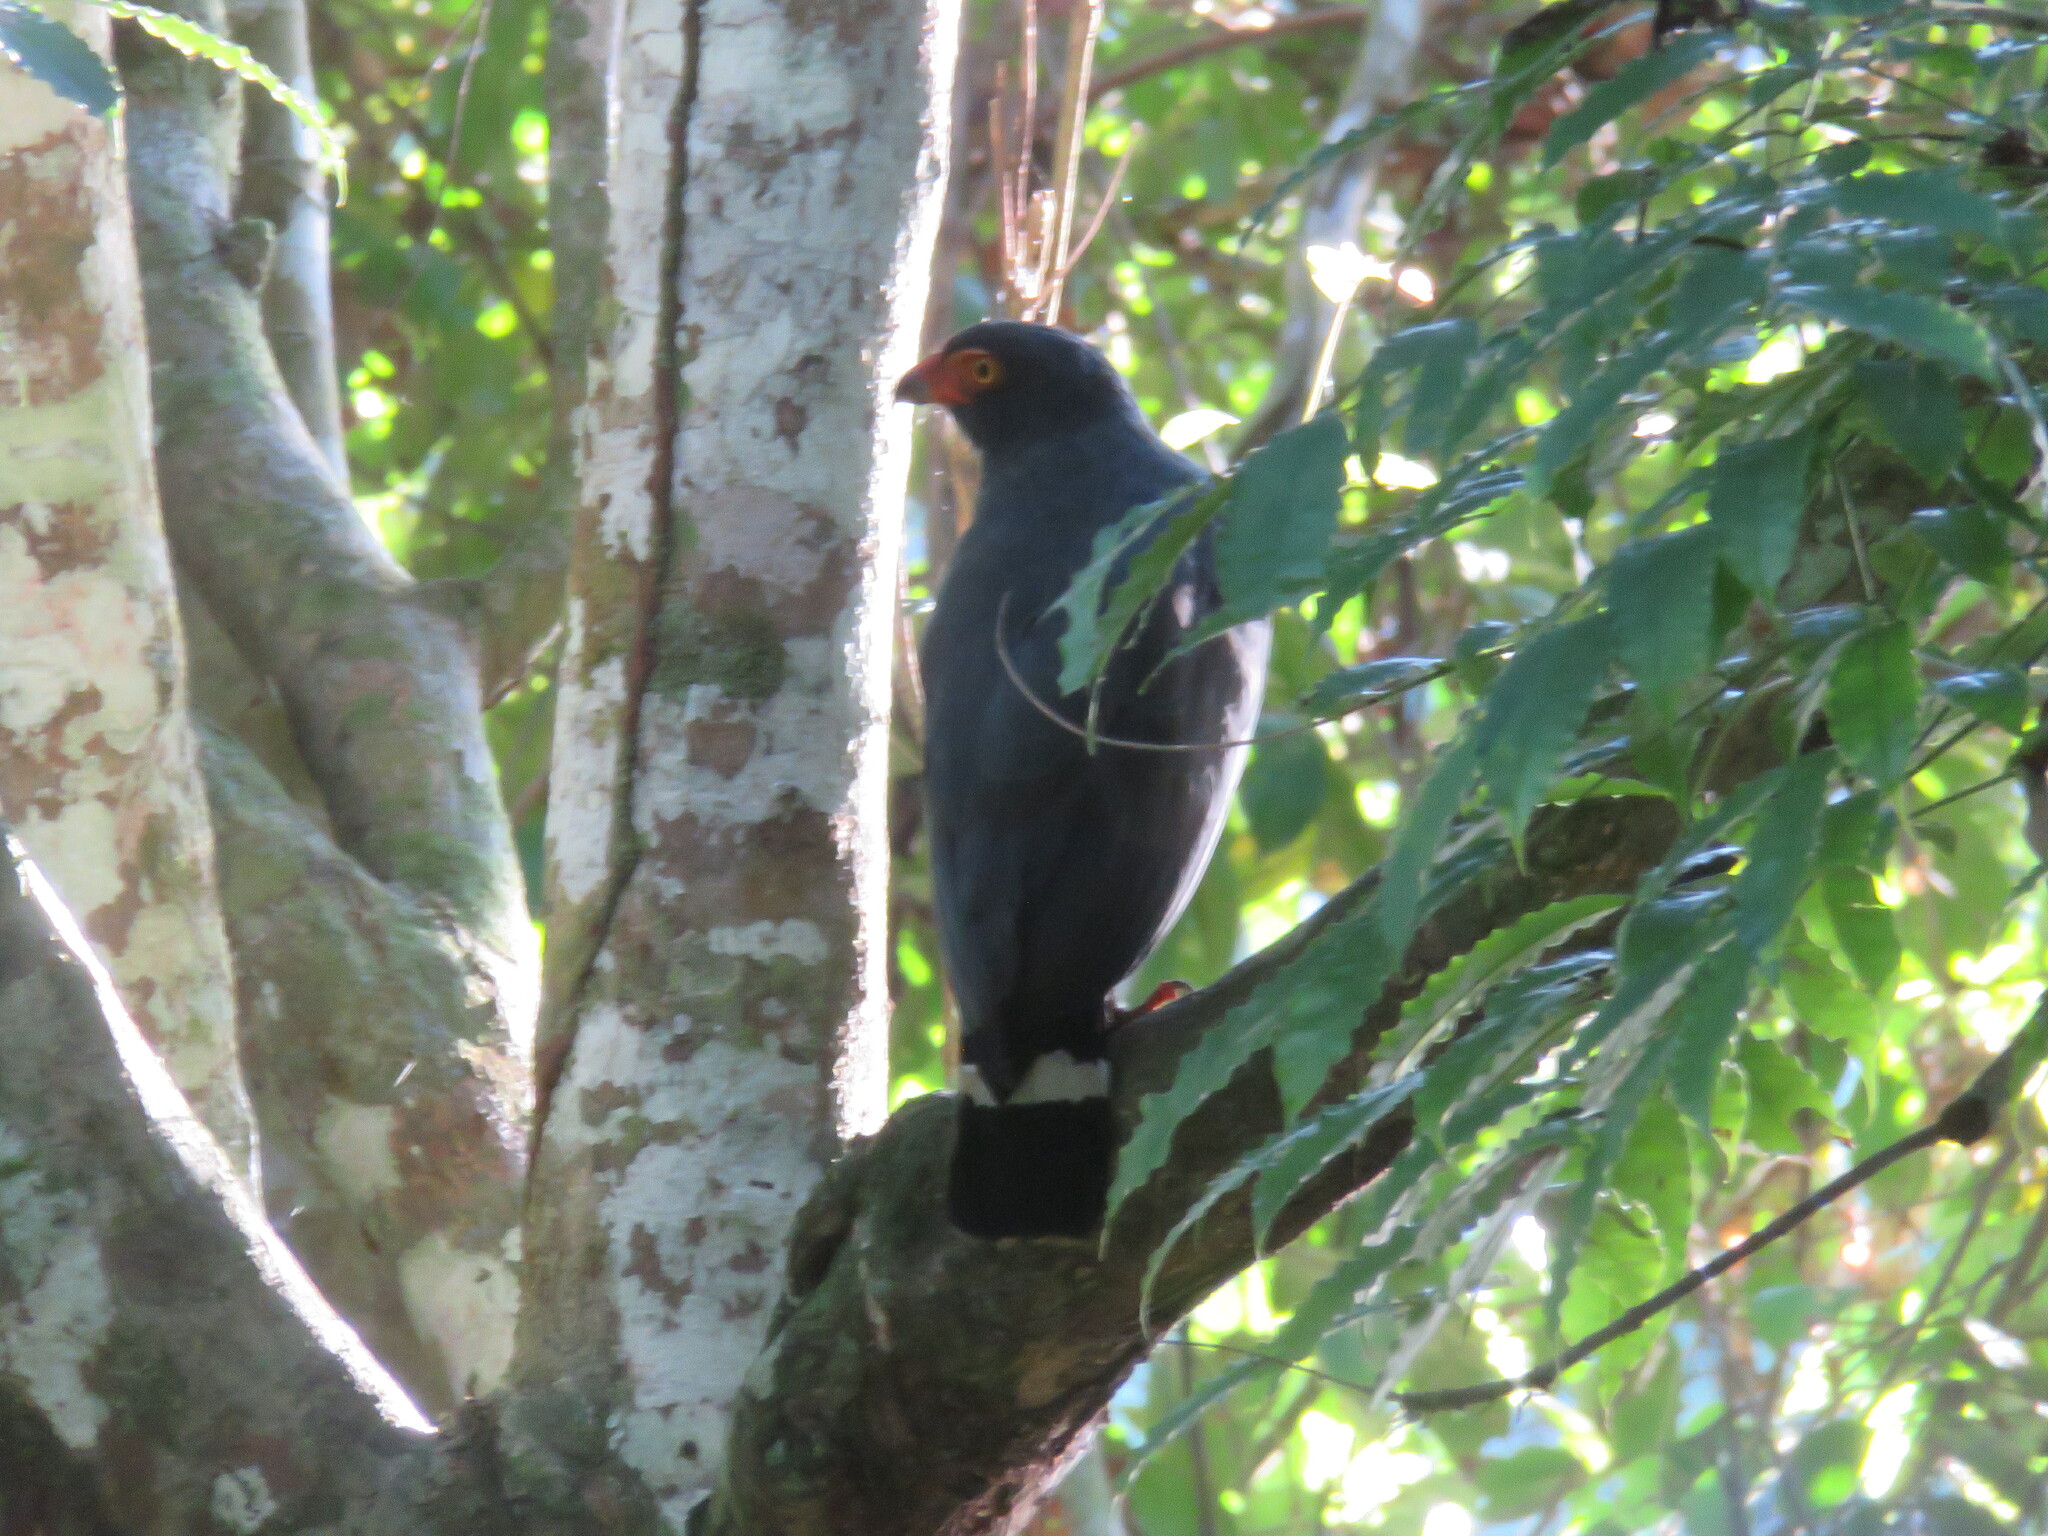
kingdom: Animalia
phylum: Chordata
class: Aves
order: Accipitriformes
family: Accipitridae
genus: Leucopternis
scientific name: Leucopternis schistaceus
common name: Slate-colored hawk
